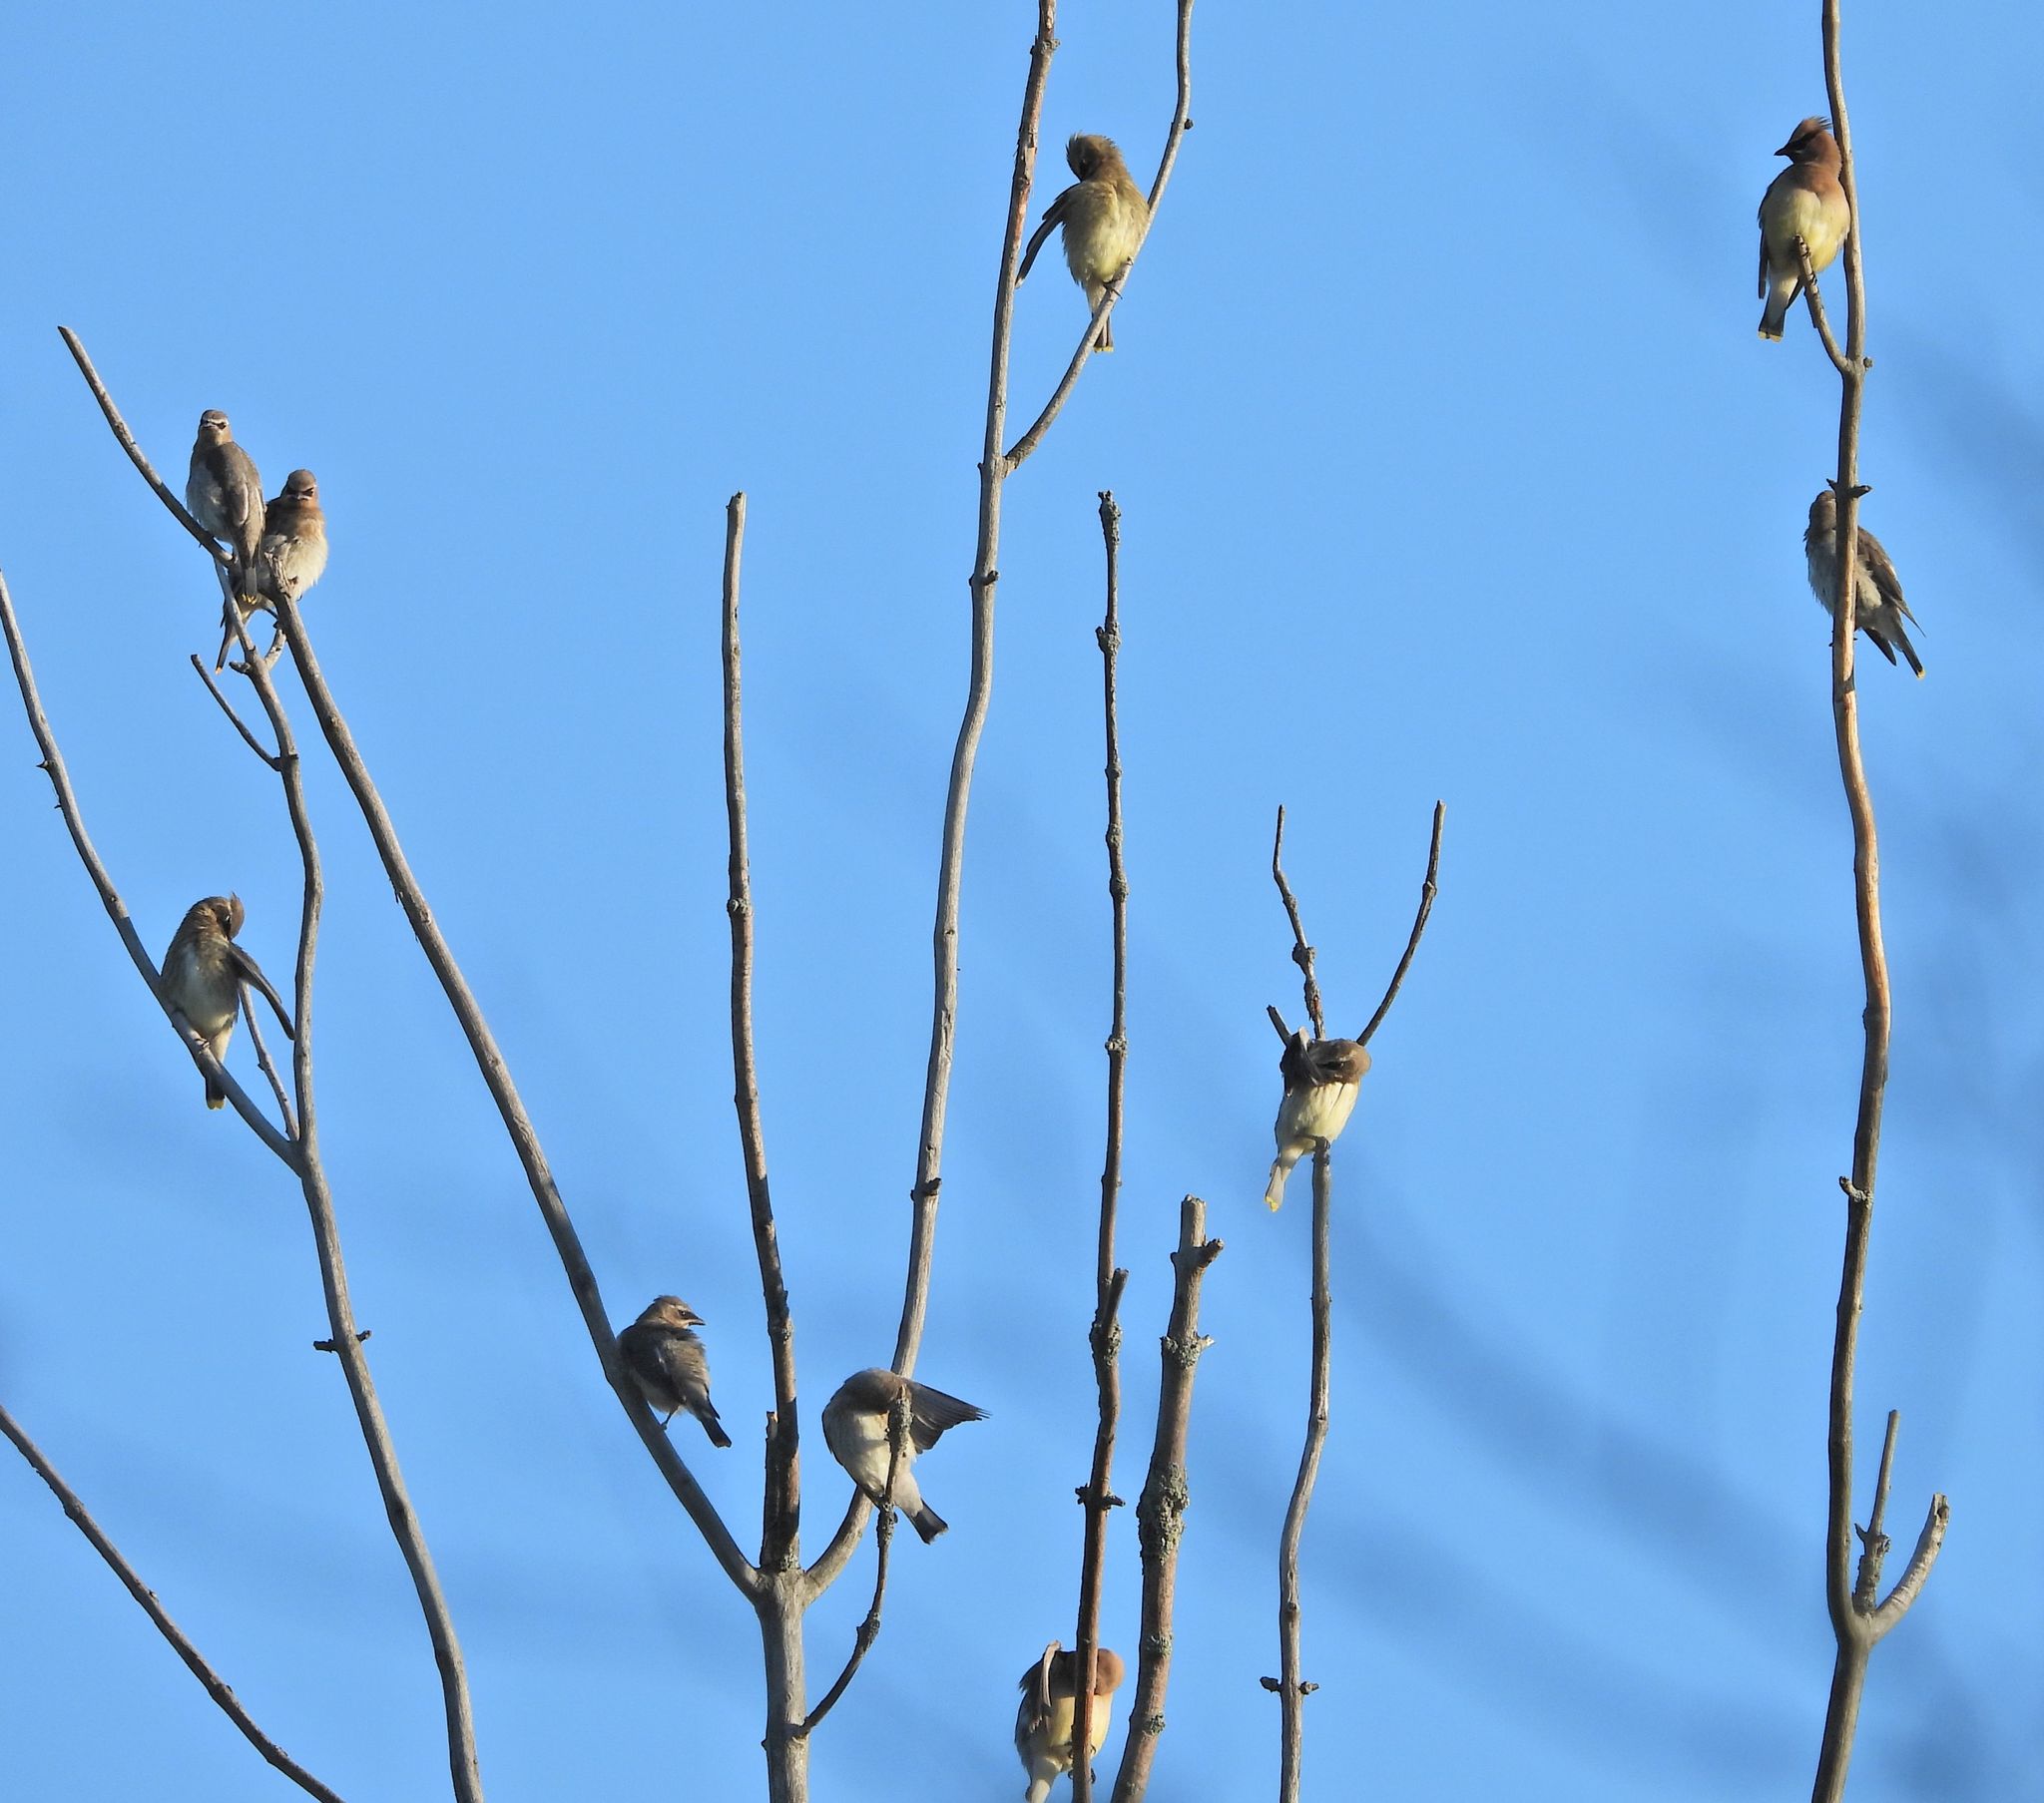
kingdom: Animalia
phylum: Chordata
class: Aves
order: Passeriformes
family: Bombycillidae
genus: Bombycilla
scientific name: Bombycilla cedrorum
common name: Cedar waxwing
